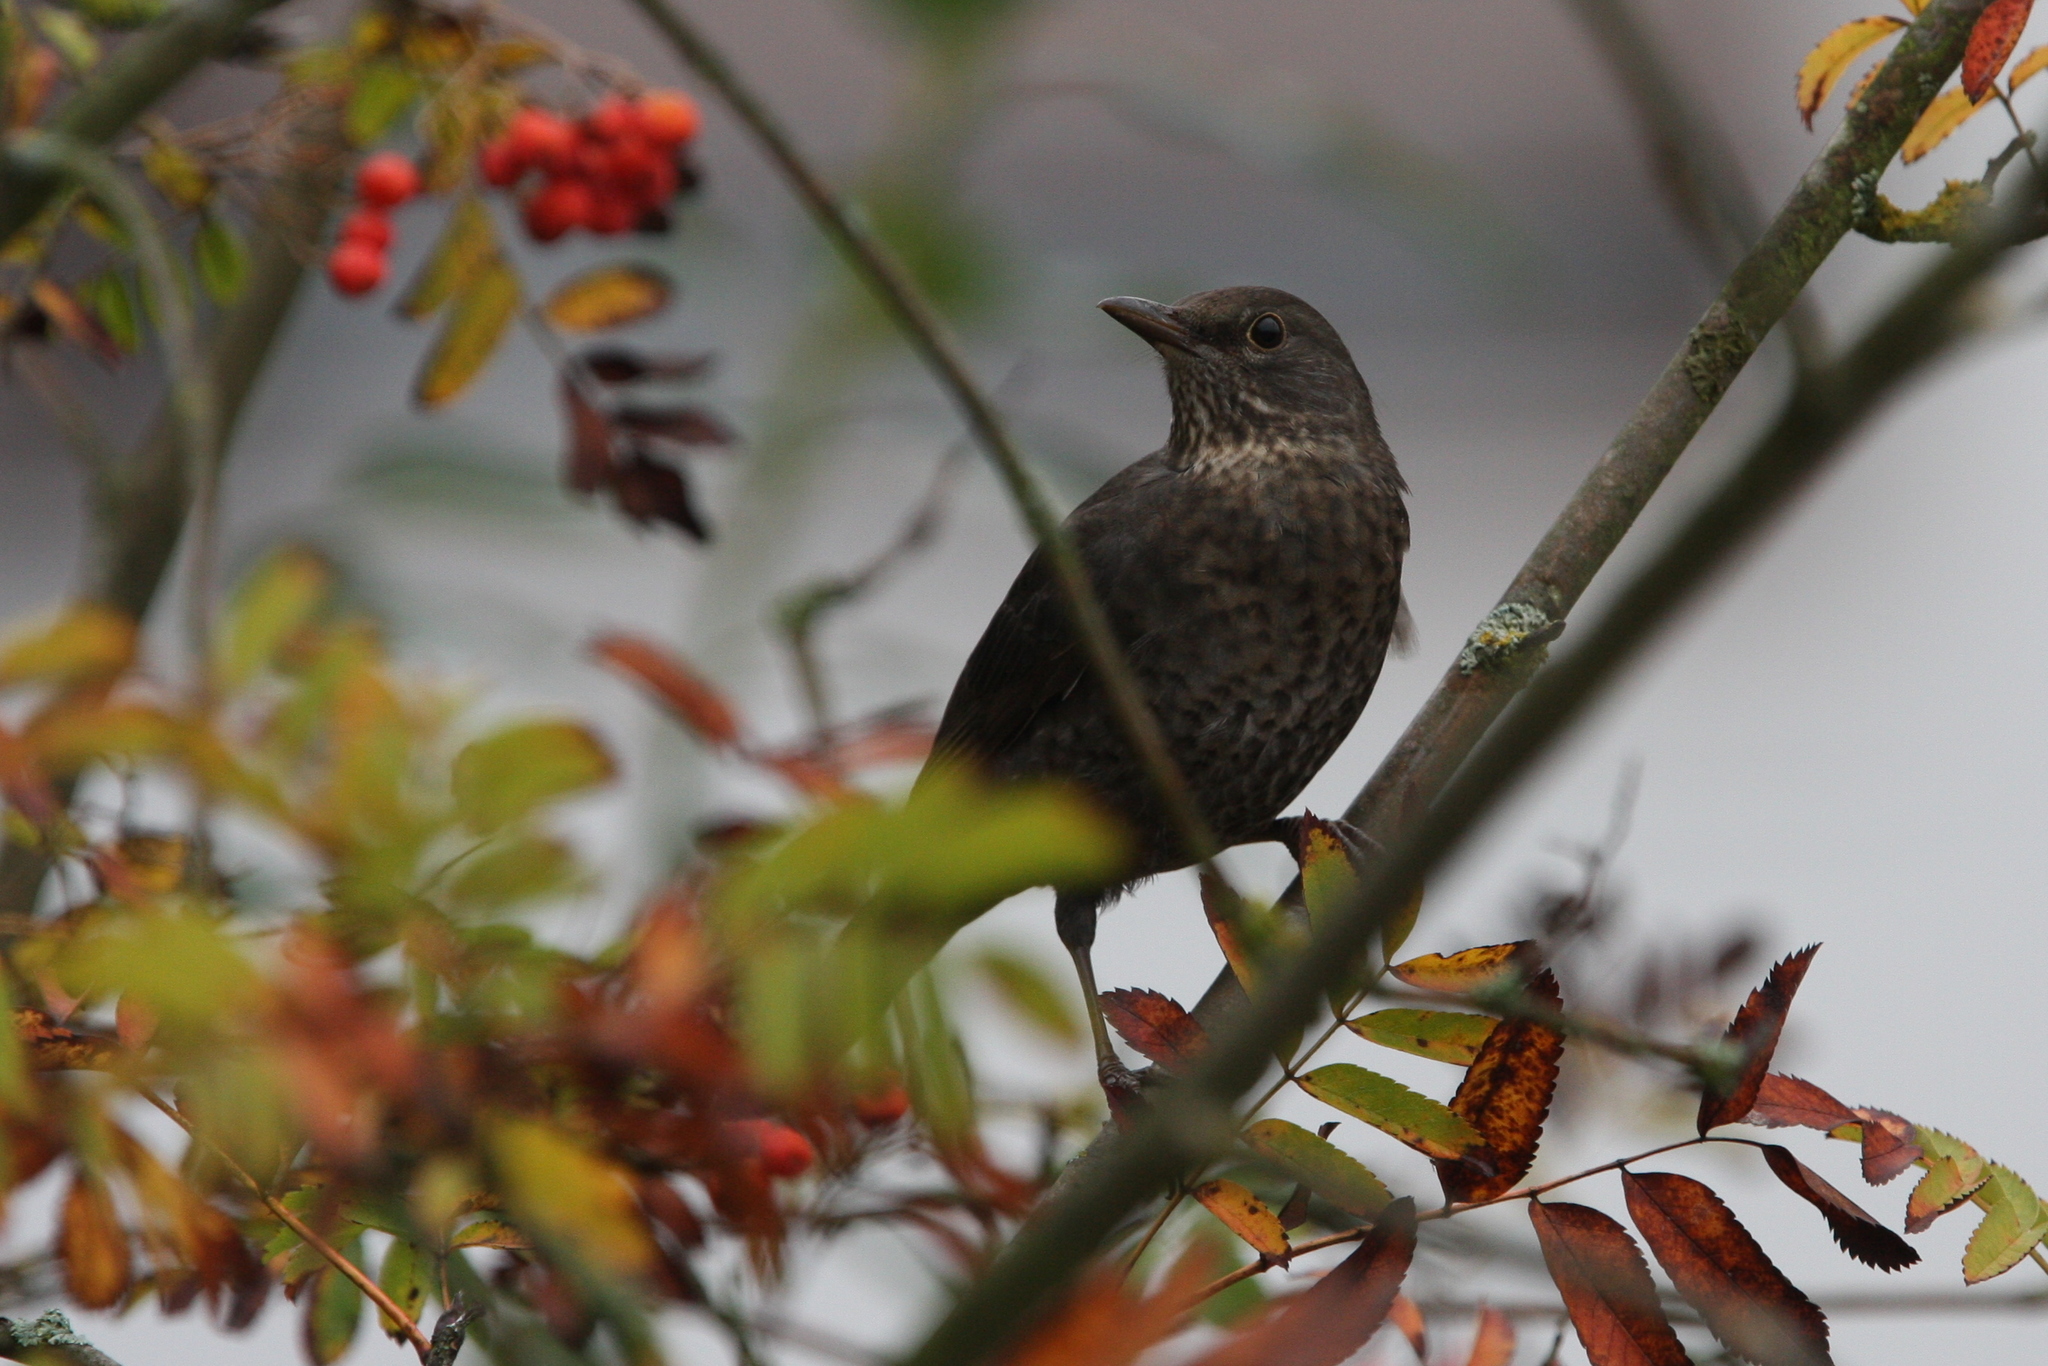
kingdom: Animalia
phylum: Chordata
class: Aves
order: Passeriformes
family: Turdidae
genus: Turdus
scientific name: Turdus merula
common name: Common blackbird
